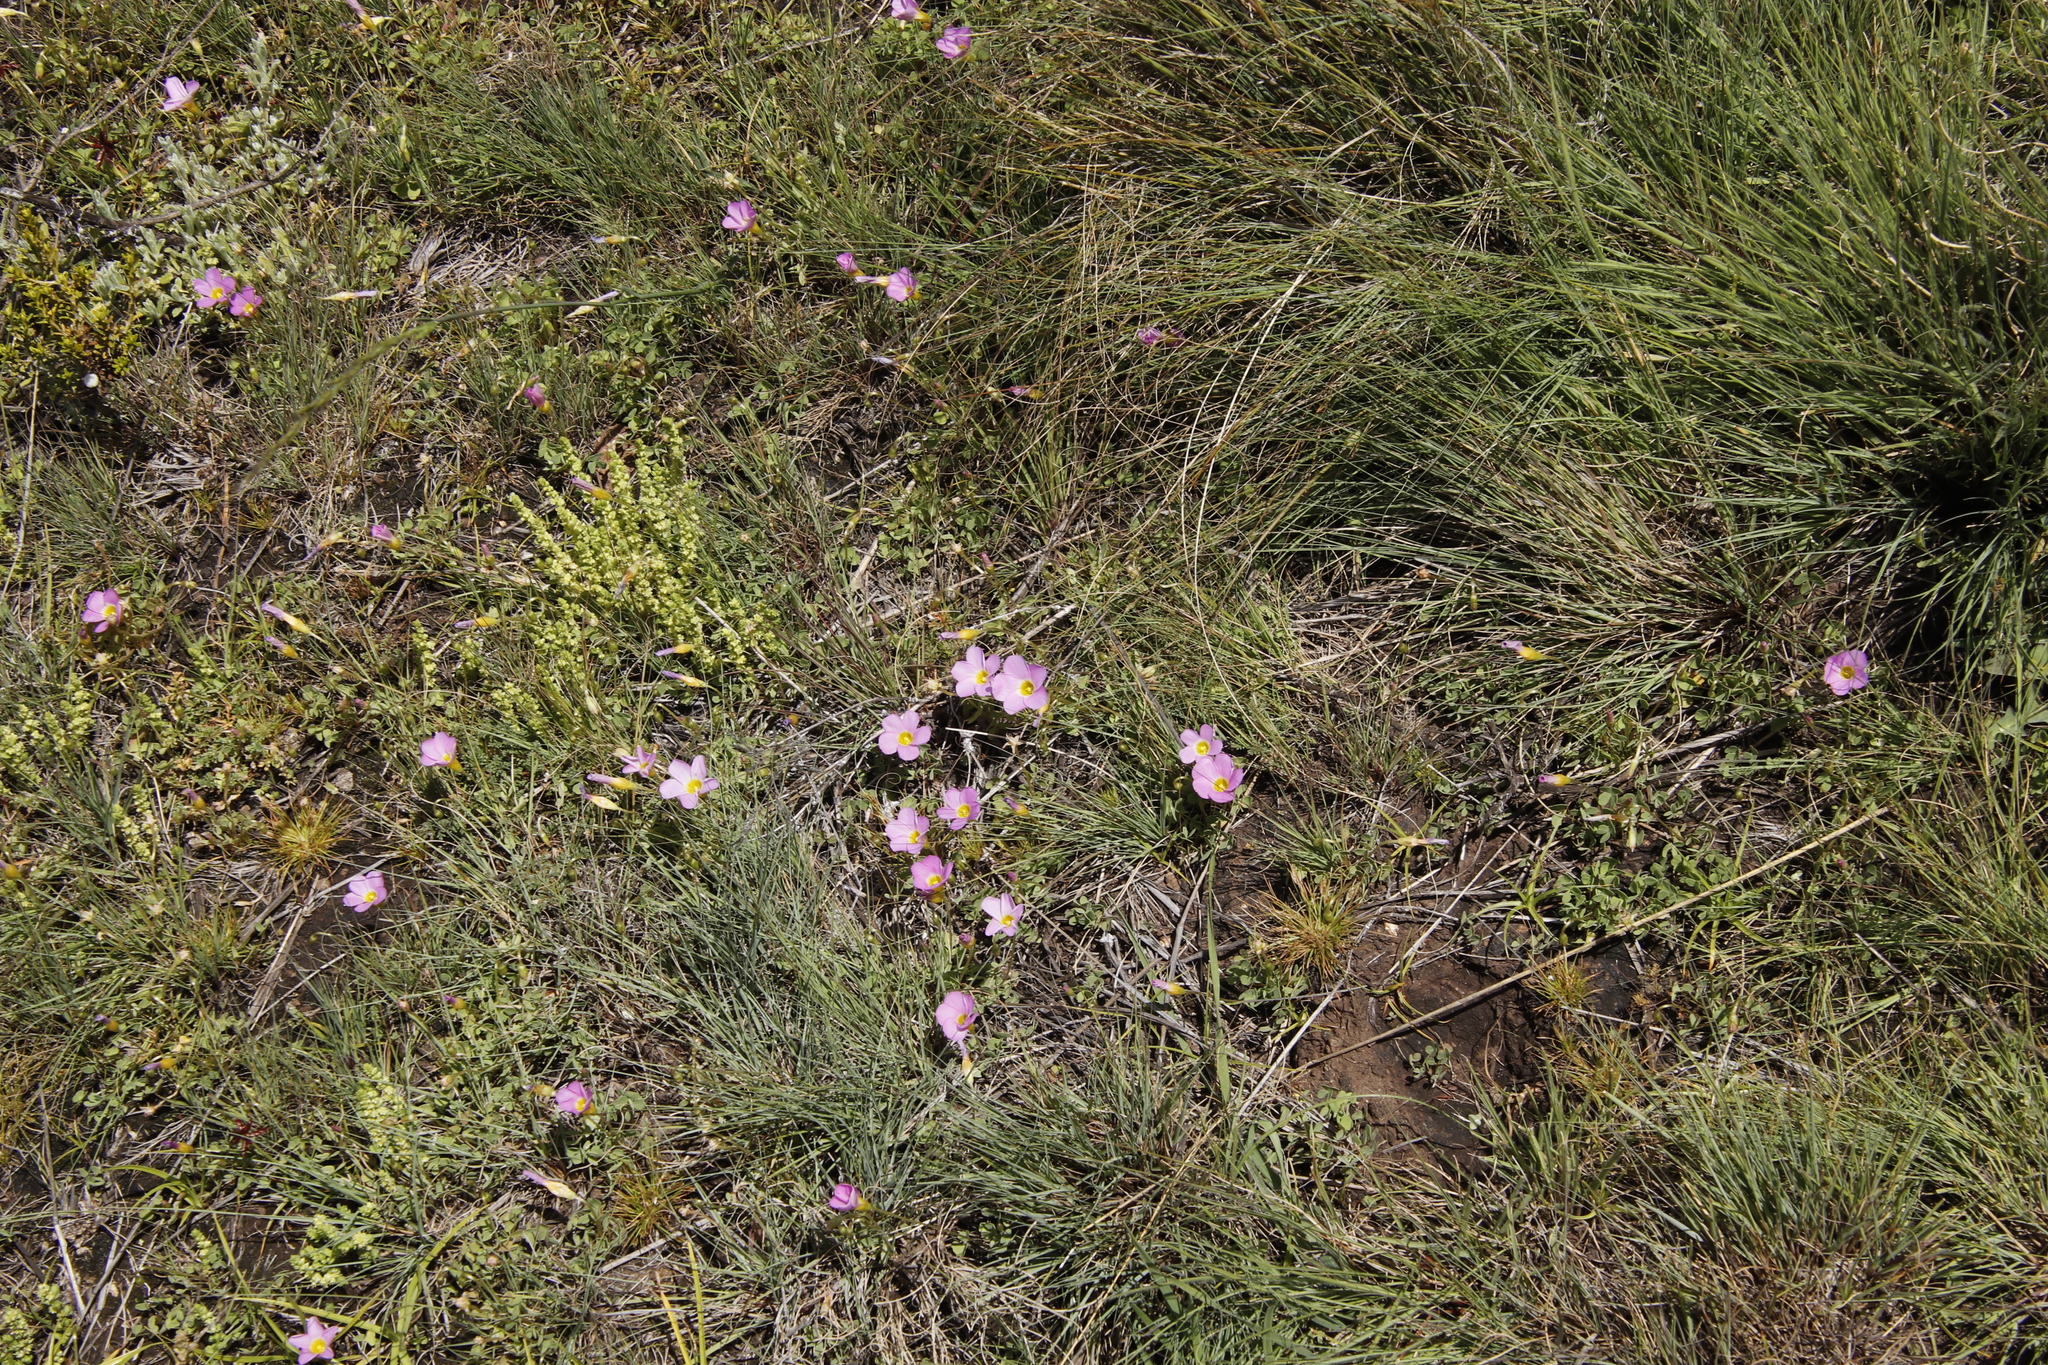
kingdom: Plantae
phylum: Tracheophyta
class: Magnoliopsida
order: Oxalidales
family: Oxalidaceae
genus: Oxalis
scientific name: Oxalis obliquifolia
